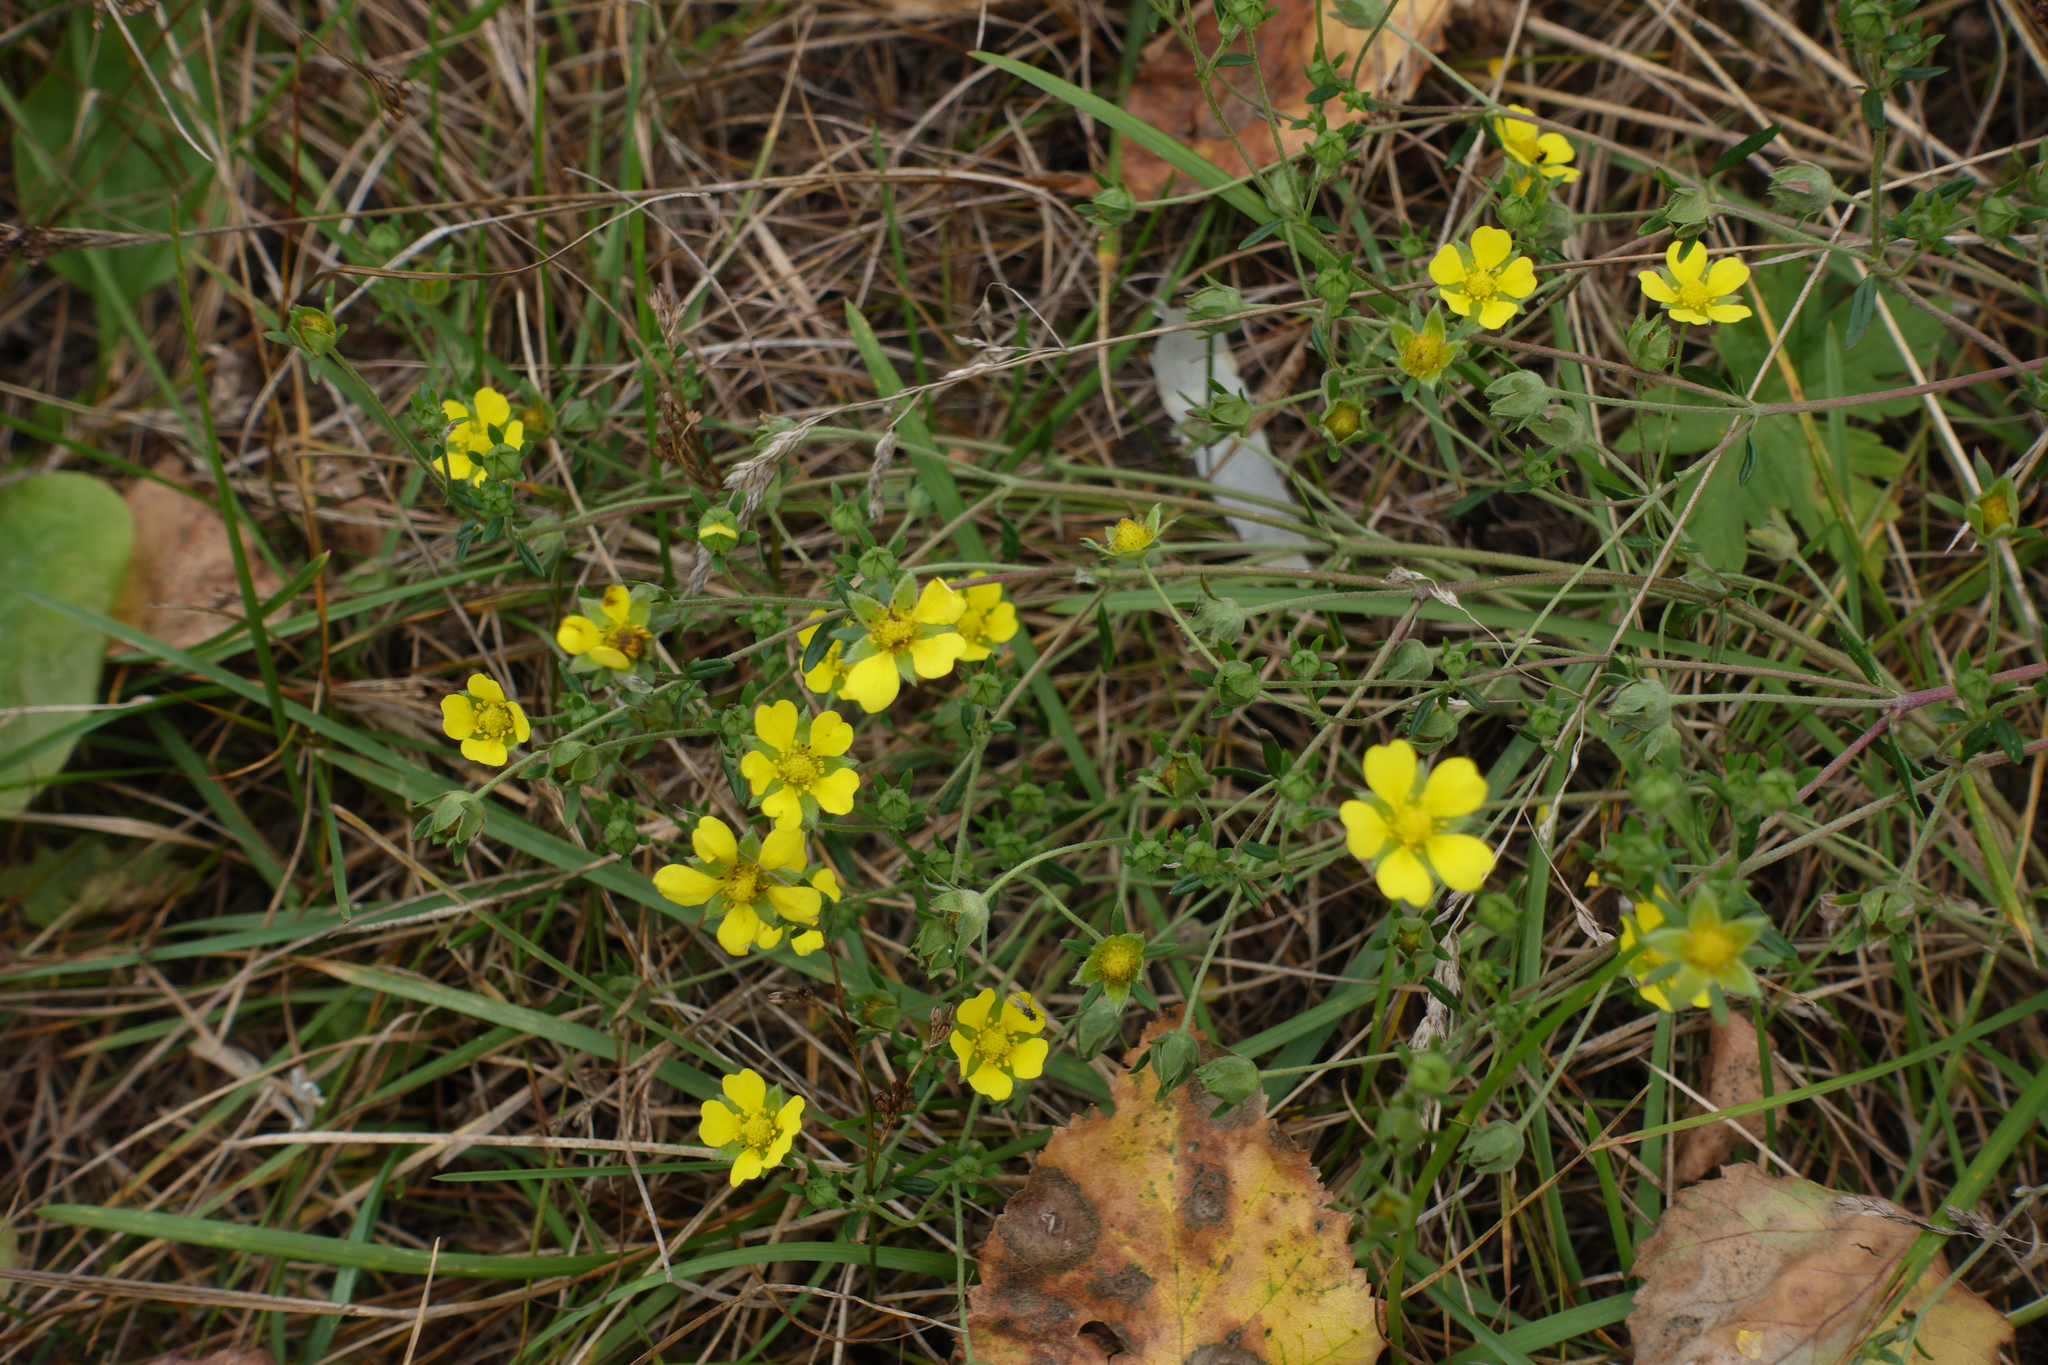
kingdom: Plantae
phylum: Tracheophyta
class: Magnoliopsida
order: Rosales
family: Rosaceae
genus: Potentilla
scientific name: Potentilla argentea
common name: Hoary cinquefoil
